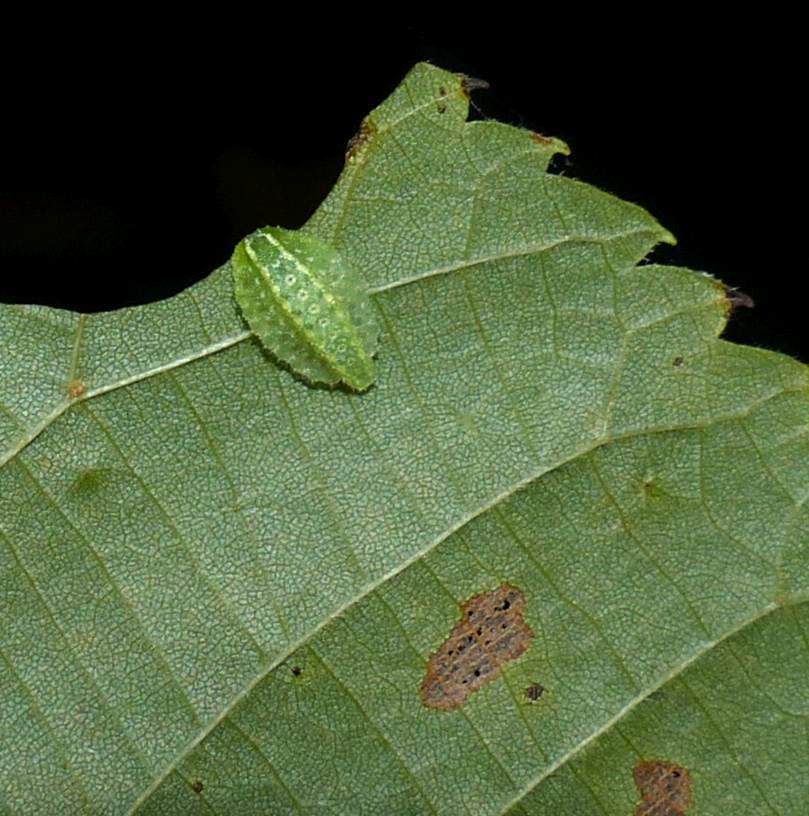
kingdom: Animalia
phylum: Arthropoda
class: Insecta
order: Lepidoptera
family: Limacodidae
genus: Lithacodes
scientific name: Lithacodes fasciola
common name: Yellow-shouldered slug moth
